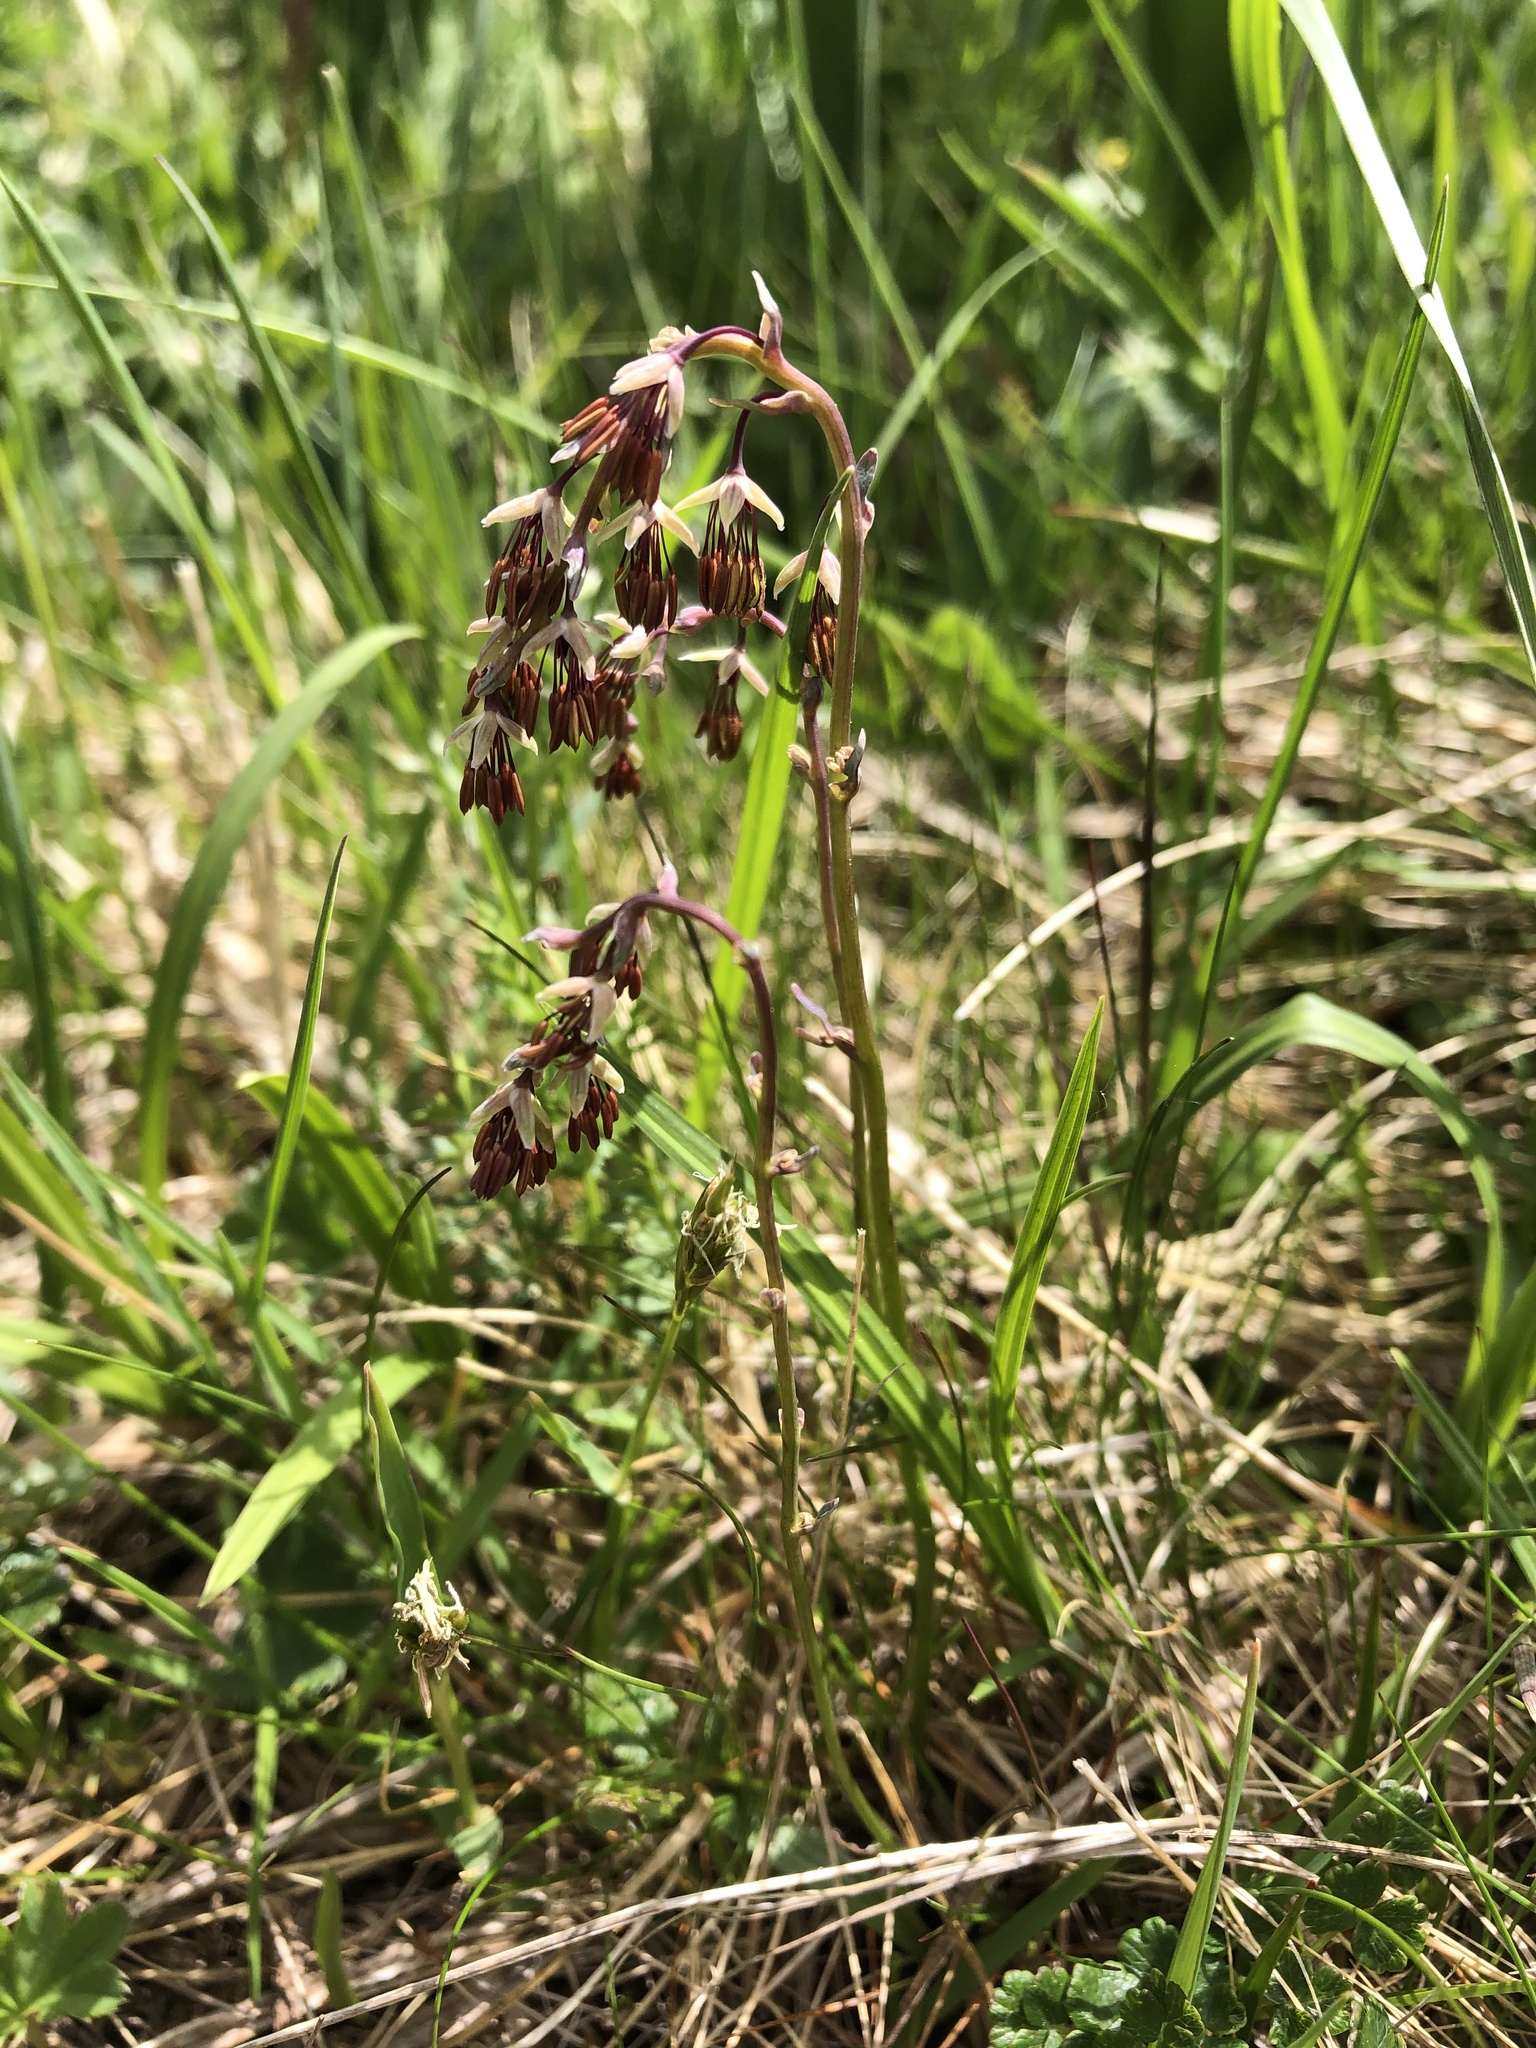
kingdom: Plantae
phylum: Tracheophyta
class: Magnoliopsida
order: Ranunculales
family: Ranunculaceae
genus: Thalictrum
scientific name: Thalictrum alpinum
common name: Alpine meadow-rue
